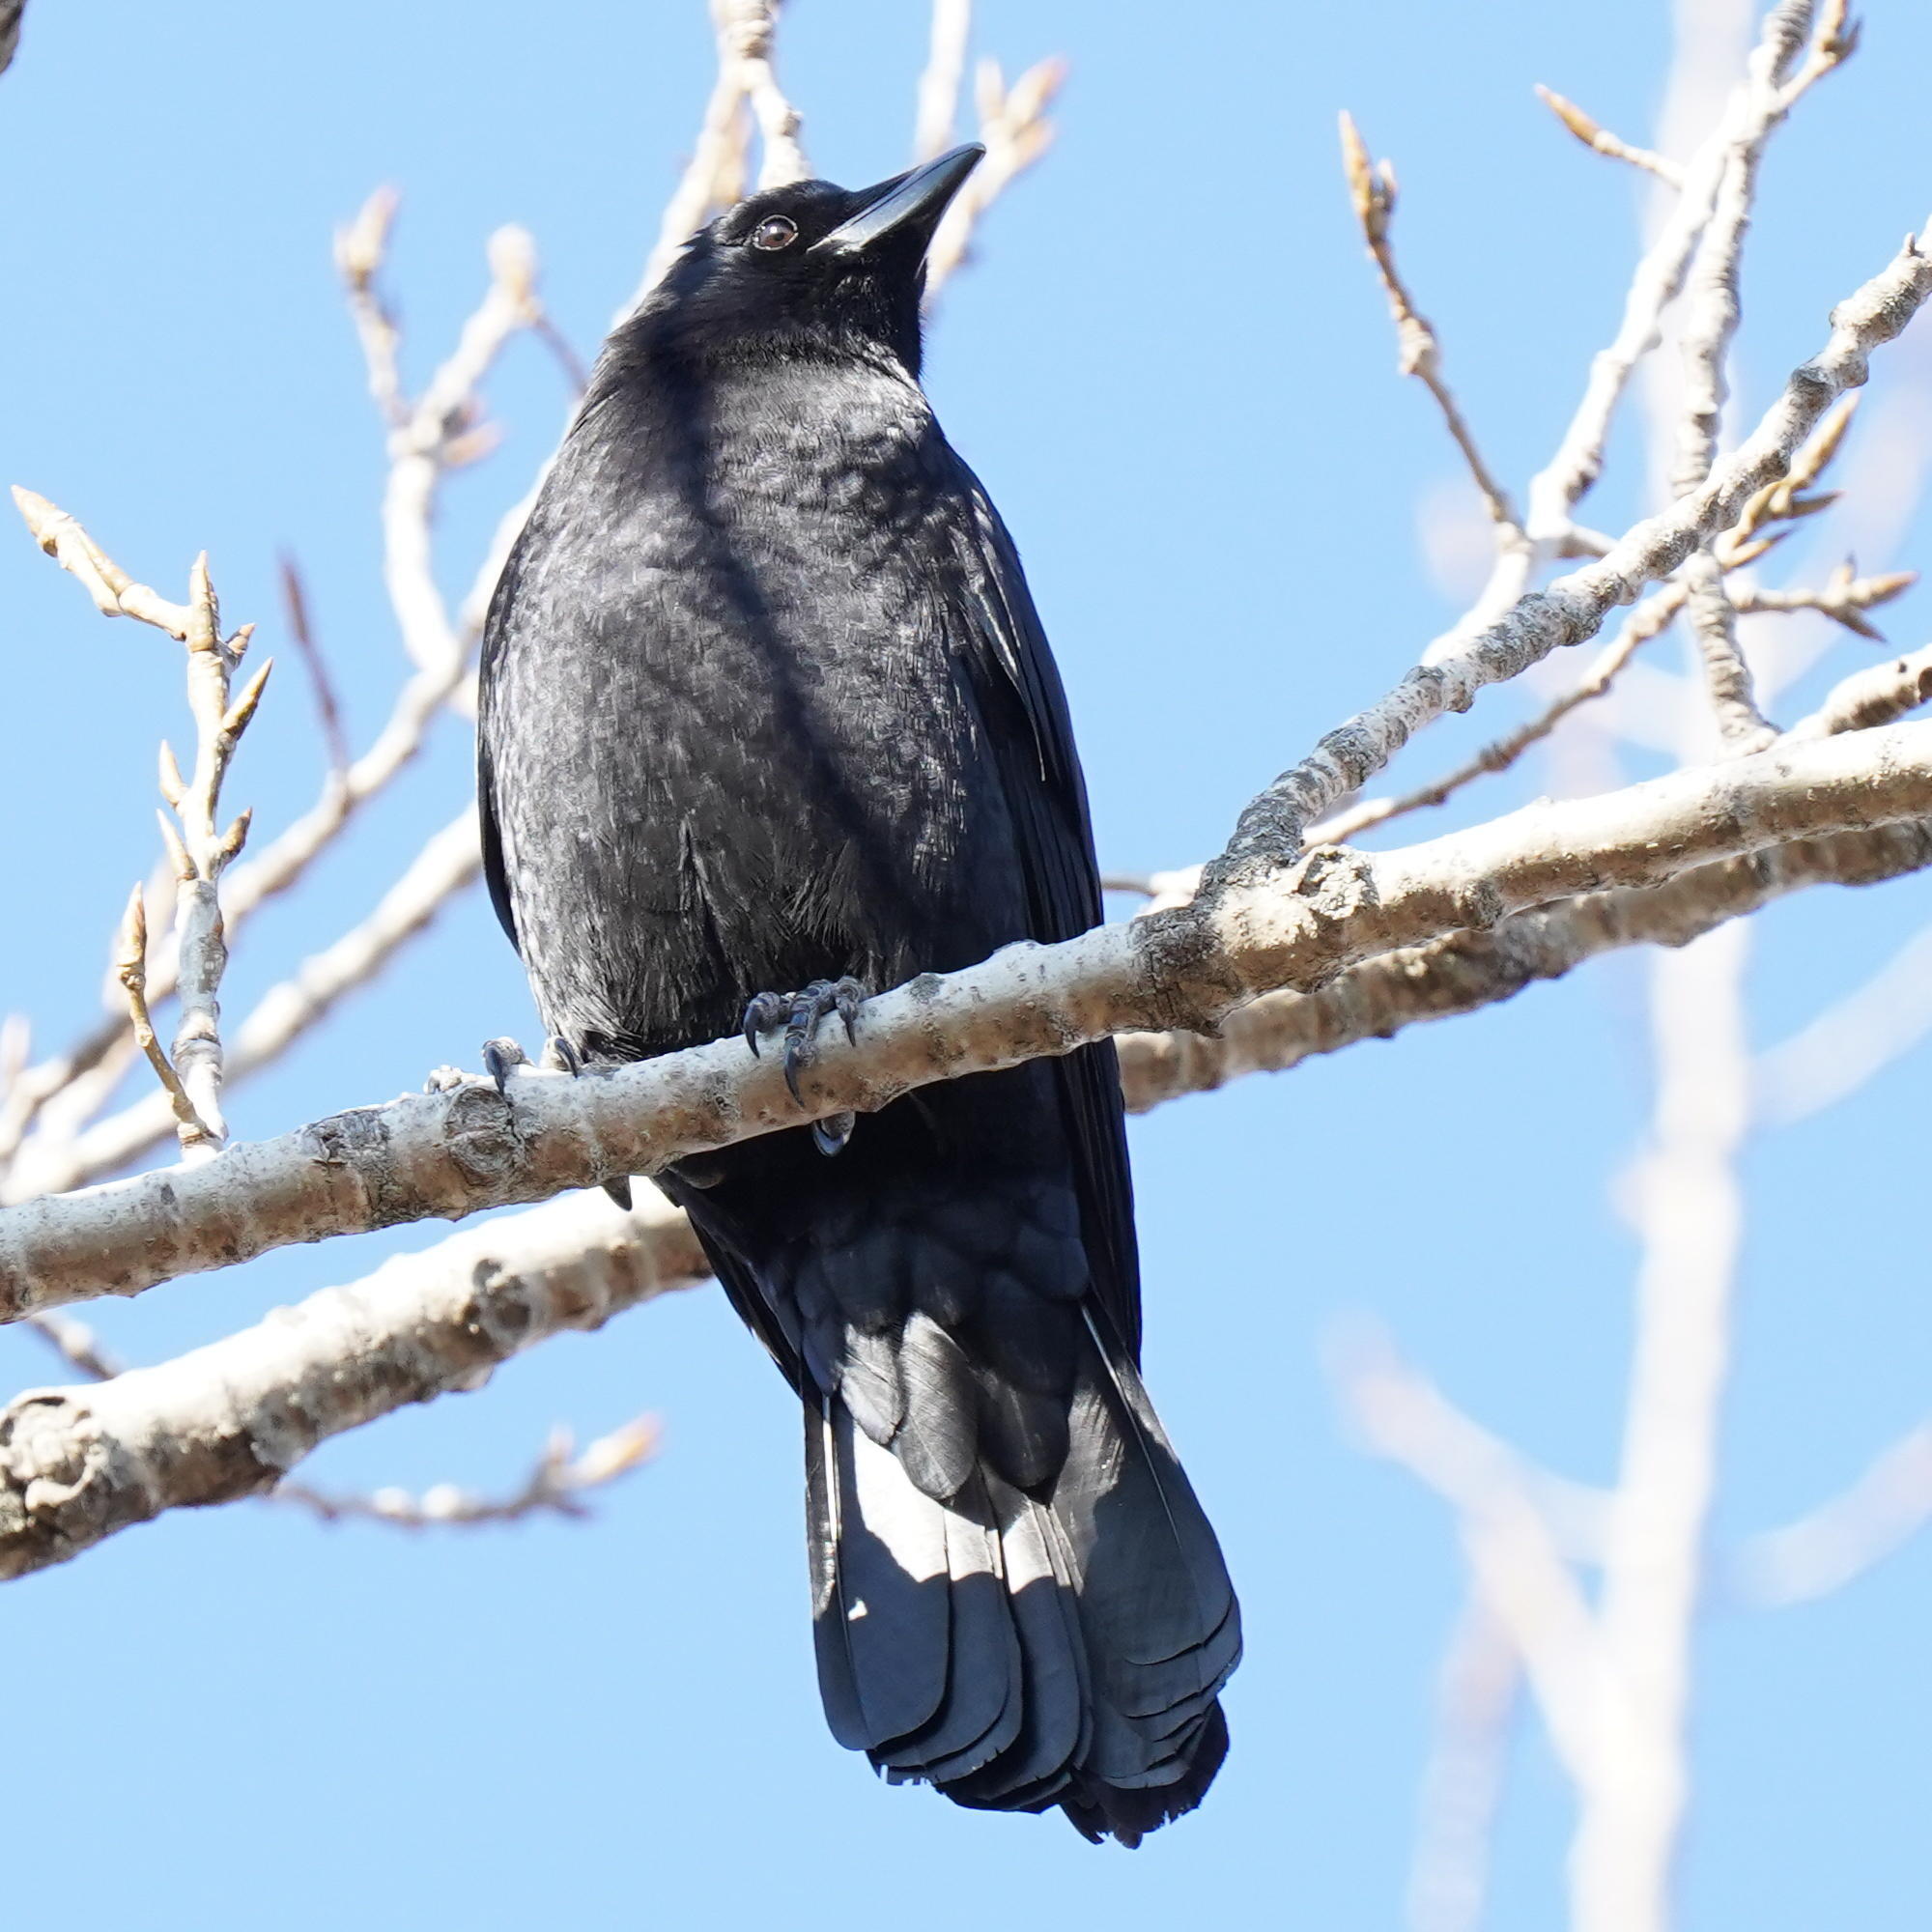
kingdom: Animalia
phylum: Chordata
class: Aves
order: Passeriformes
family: Corvidae
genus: Corvus
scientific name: Corvus brachyrhynchos
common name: American crow
